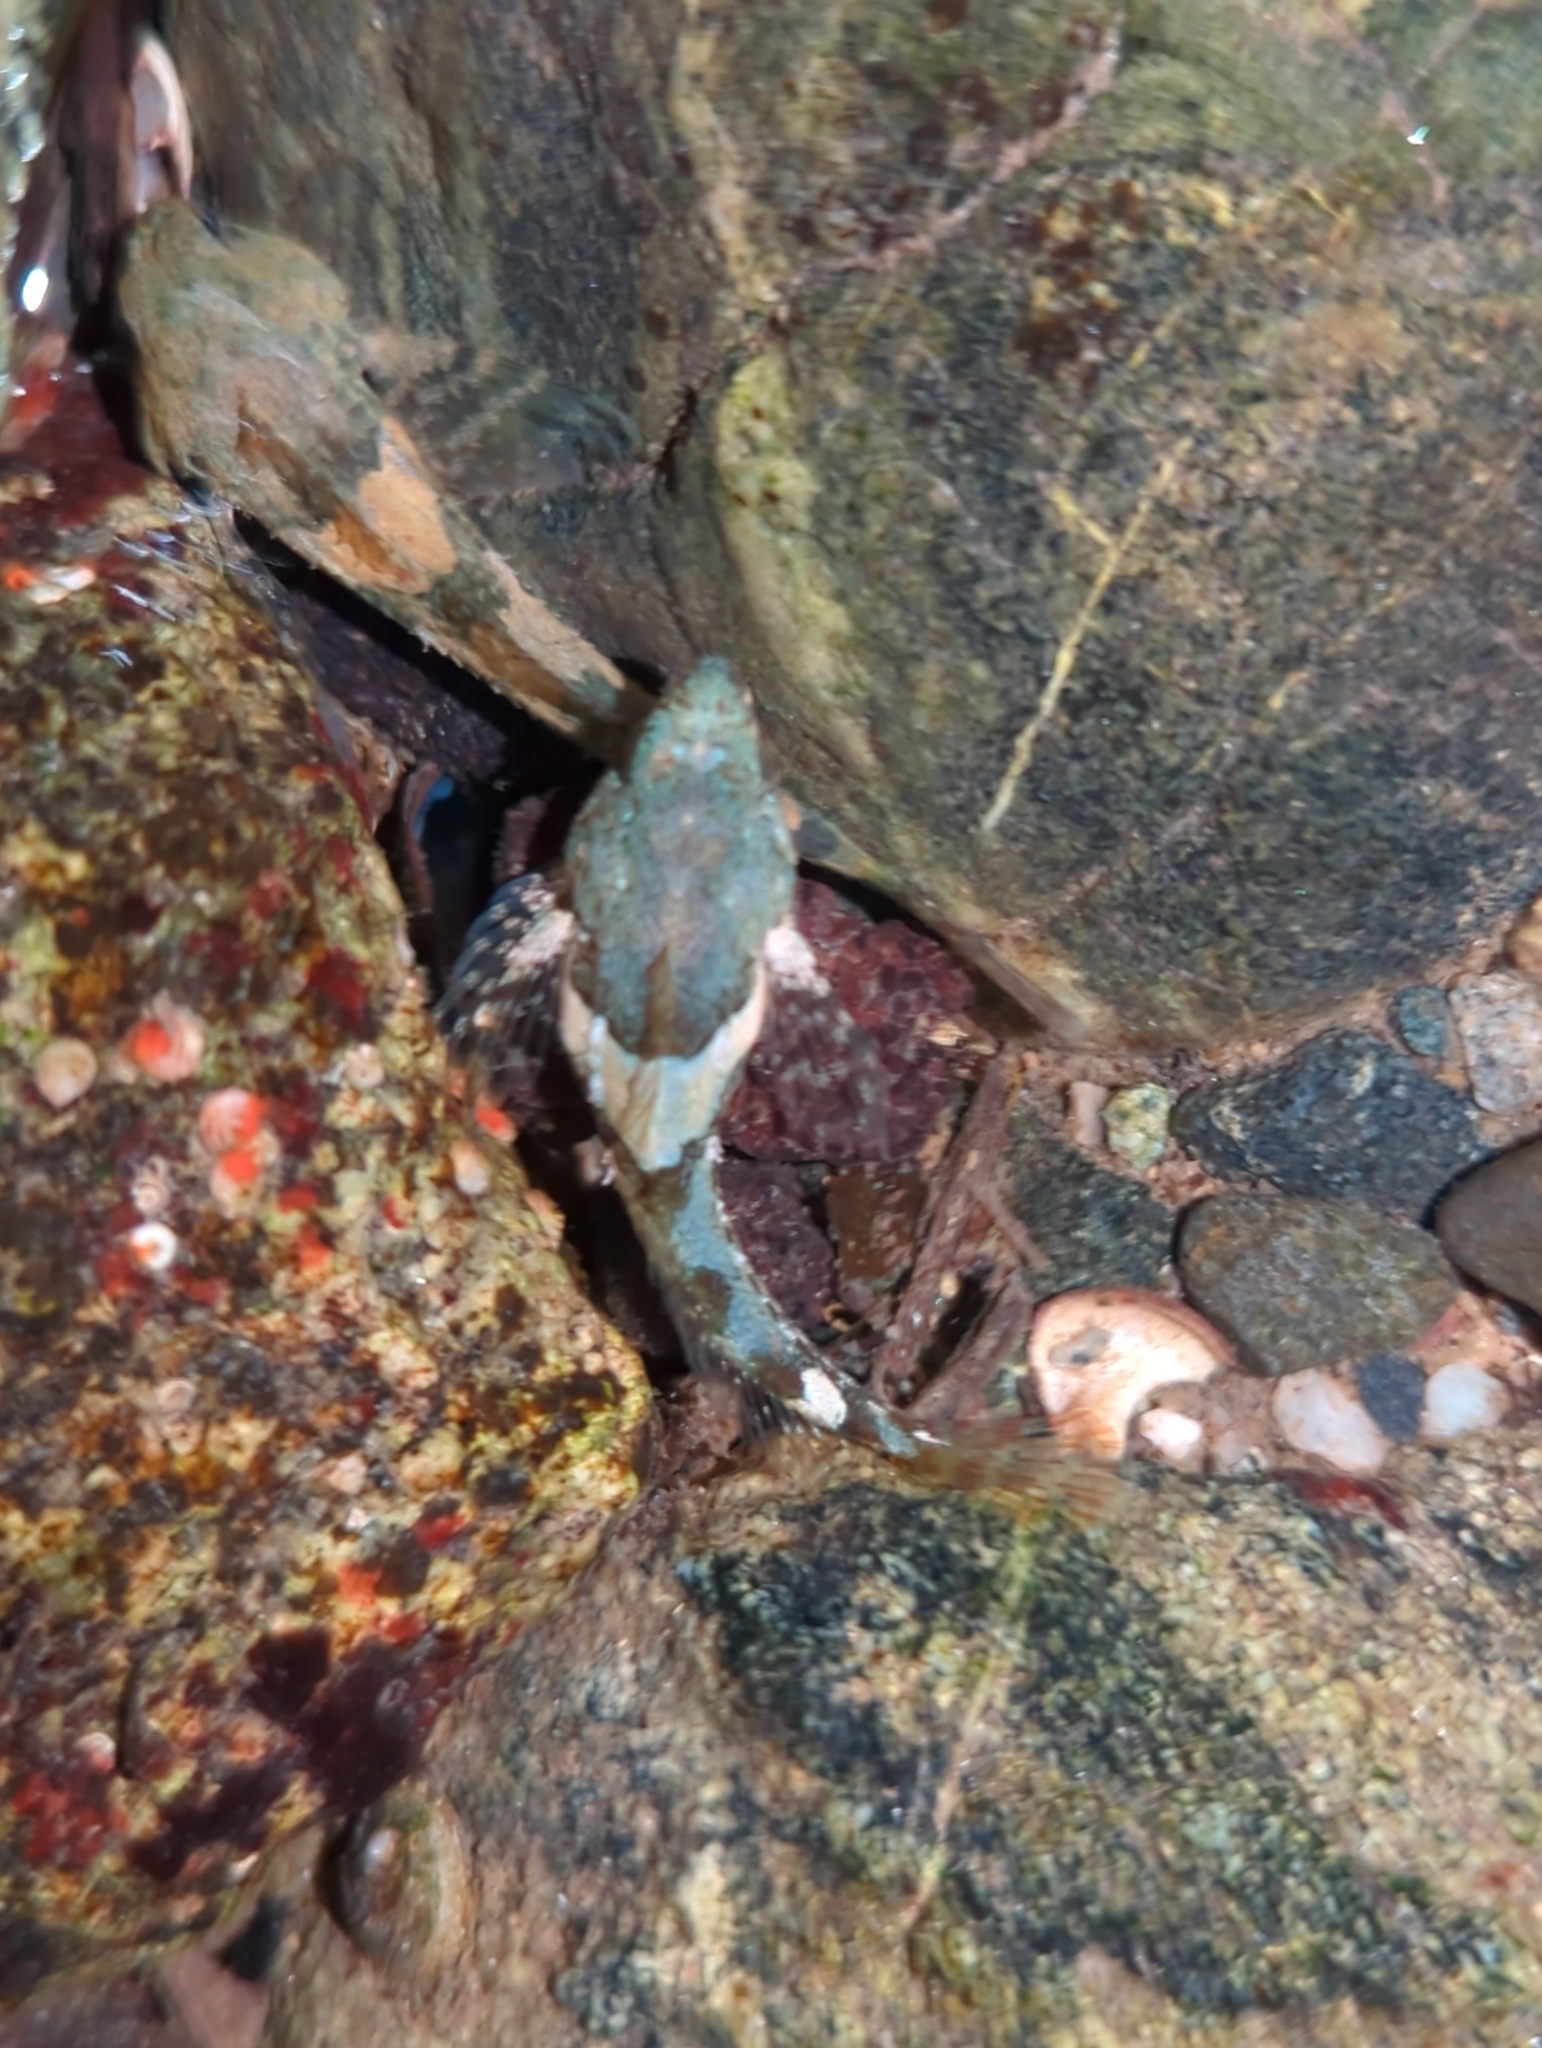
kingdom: Animalia
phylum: Chordata
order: Scorpaeniformes
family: Cottidae
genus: Oligocottus
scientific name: Oligocottus maculosus
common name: Tidepool sculpin
